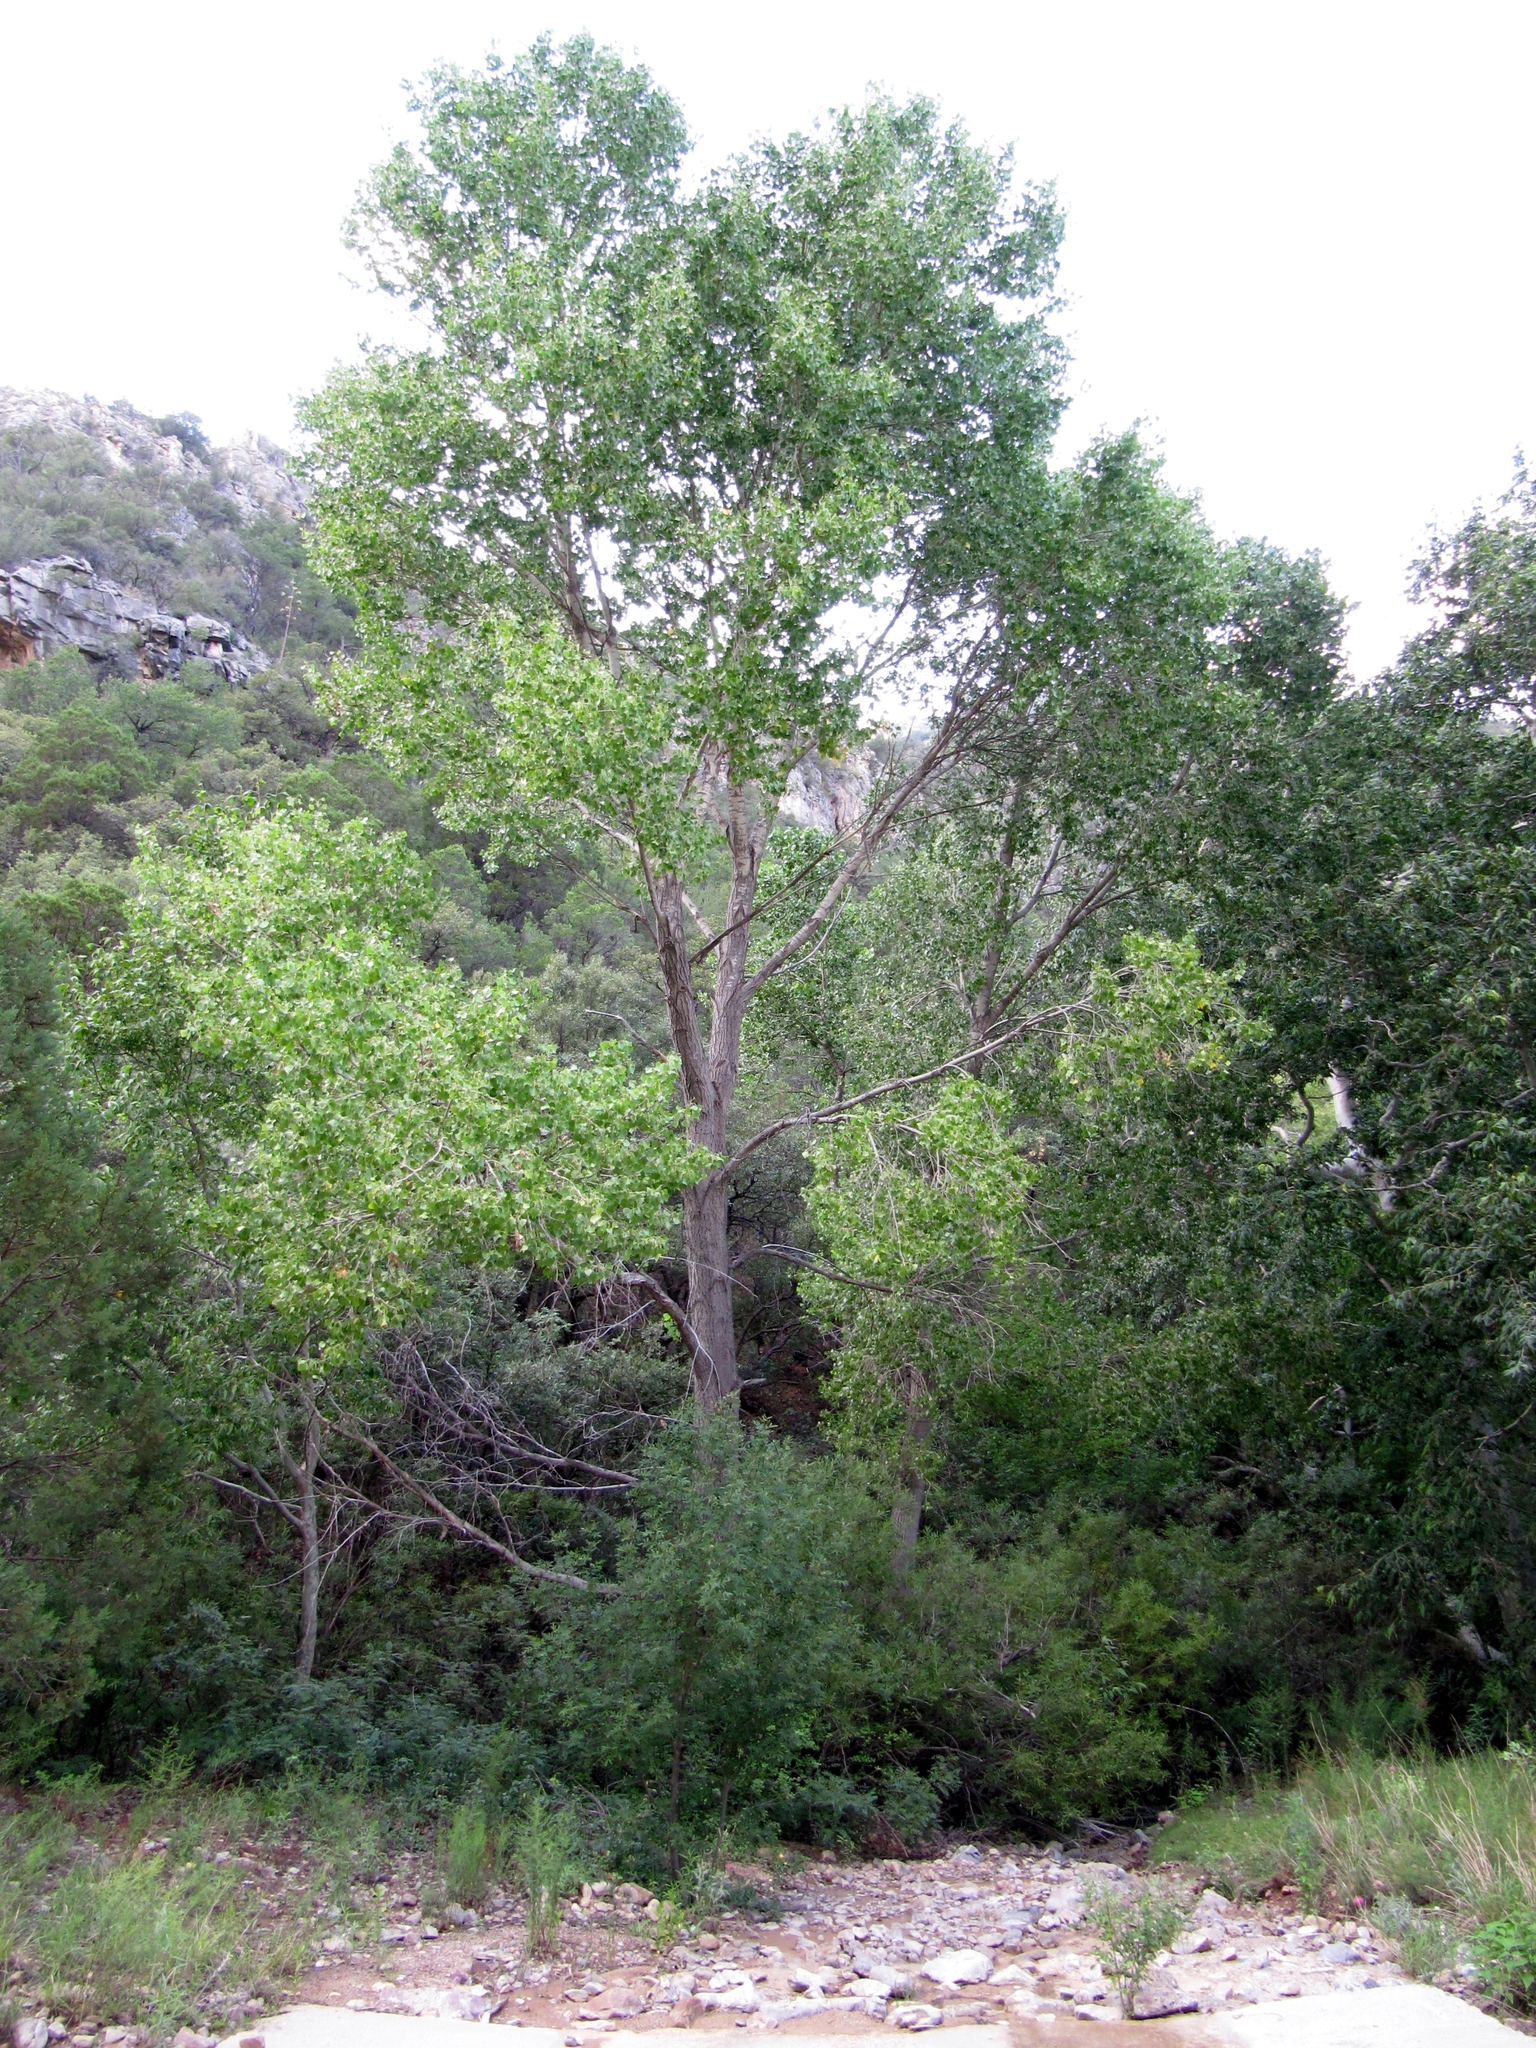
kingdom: Plantae
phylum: Tracheophyta
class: Magnoliopsida
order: Malpighiales
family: Salicaceae
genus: Populus
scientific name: Populus fremontii
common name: Fremont's cottonwood
